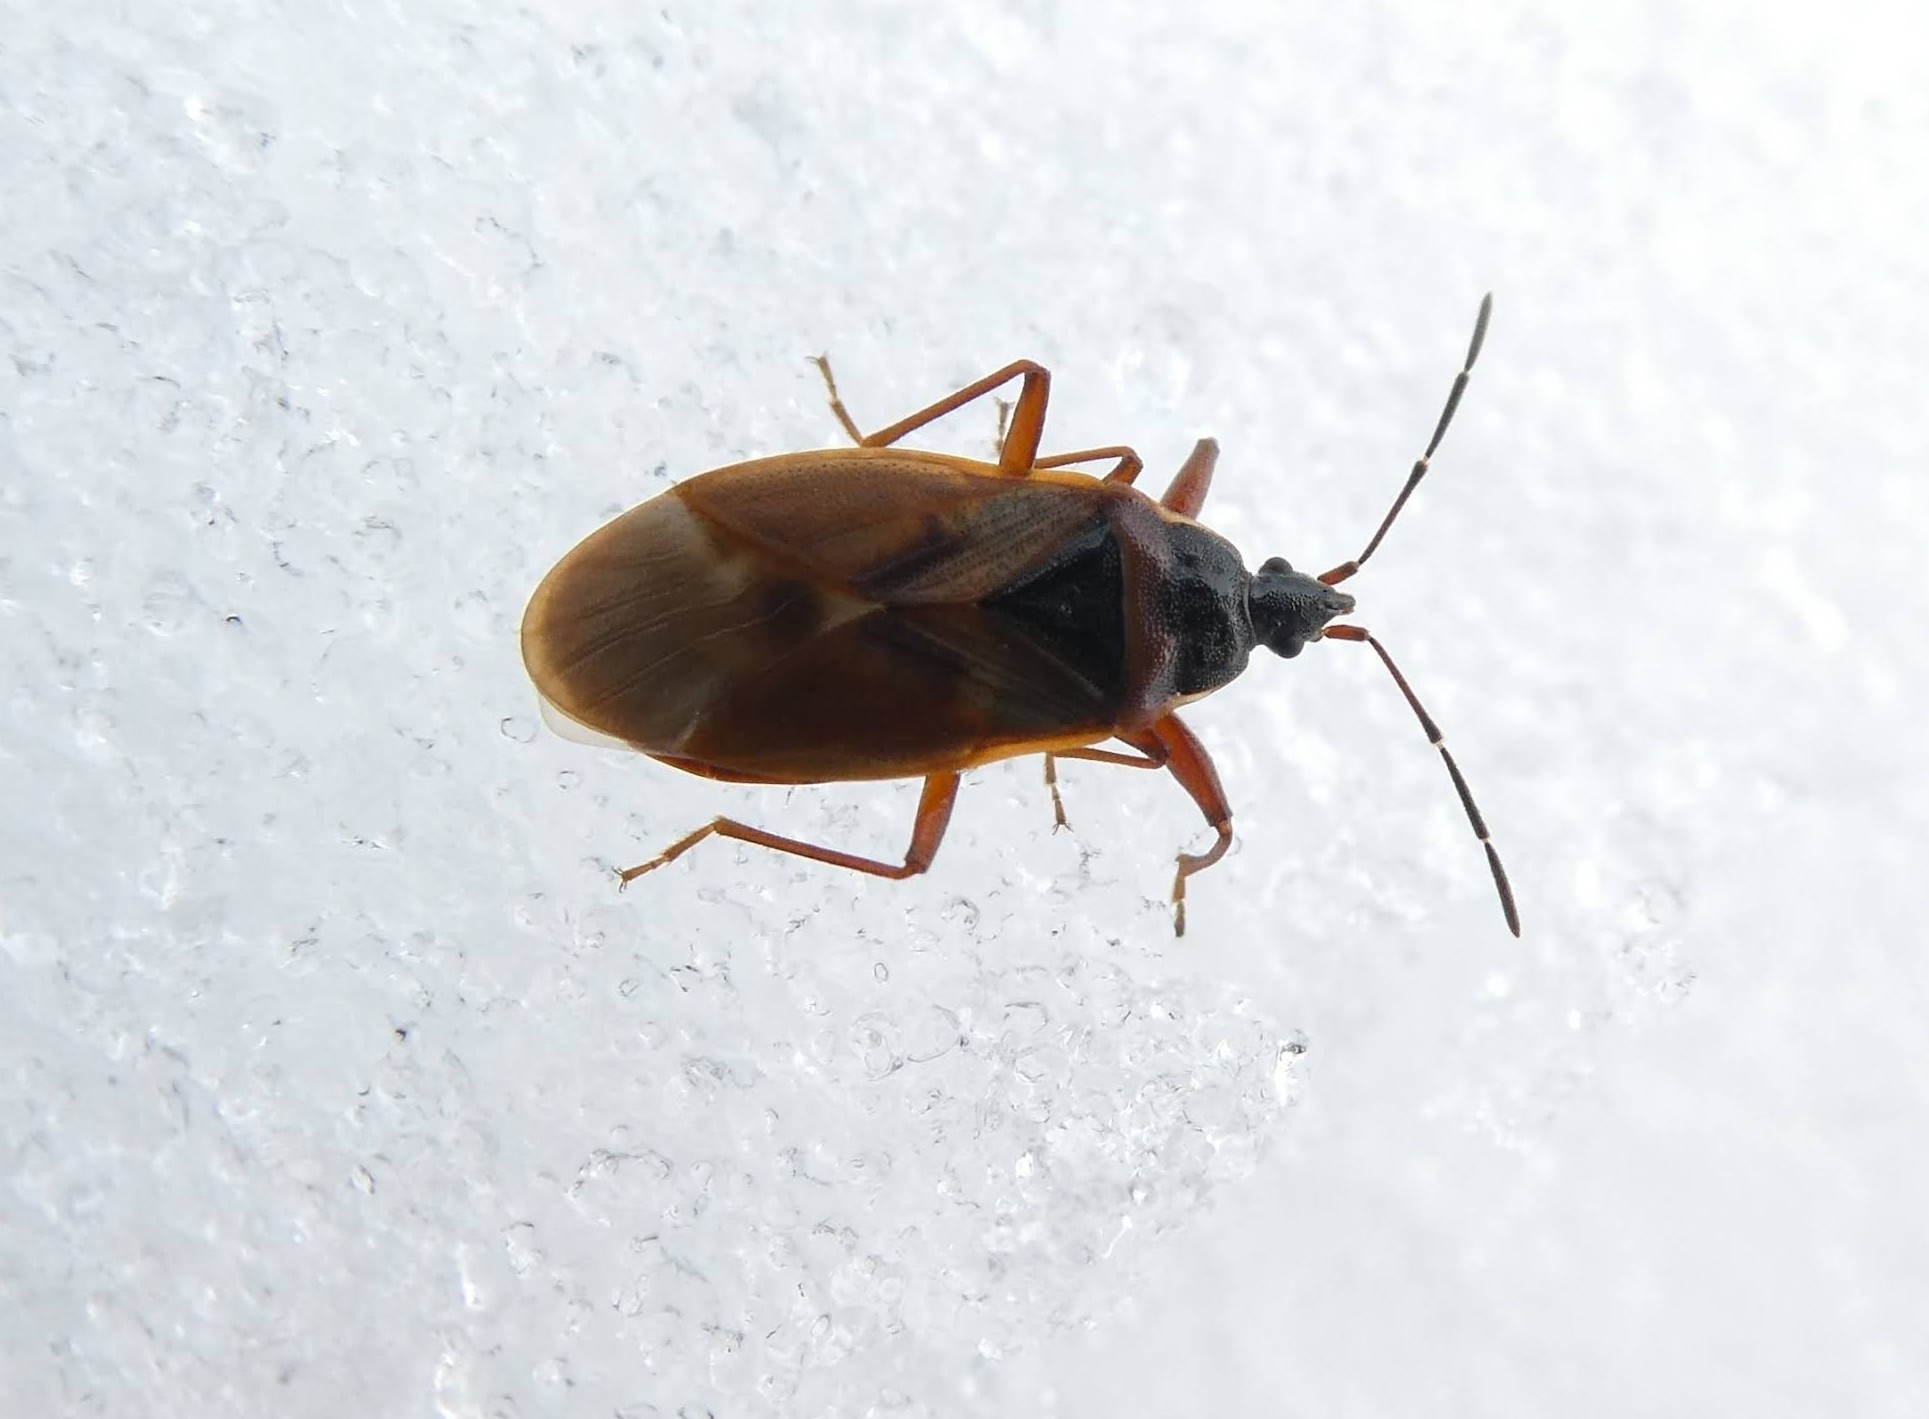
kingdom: Animalia
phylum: Arthropoda
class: Insecta
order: Hemiptera
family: Rhyparochromidae
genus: Gastrodes
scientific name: Gastrodes abietum
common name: Spruce cone bug
